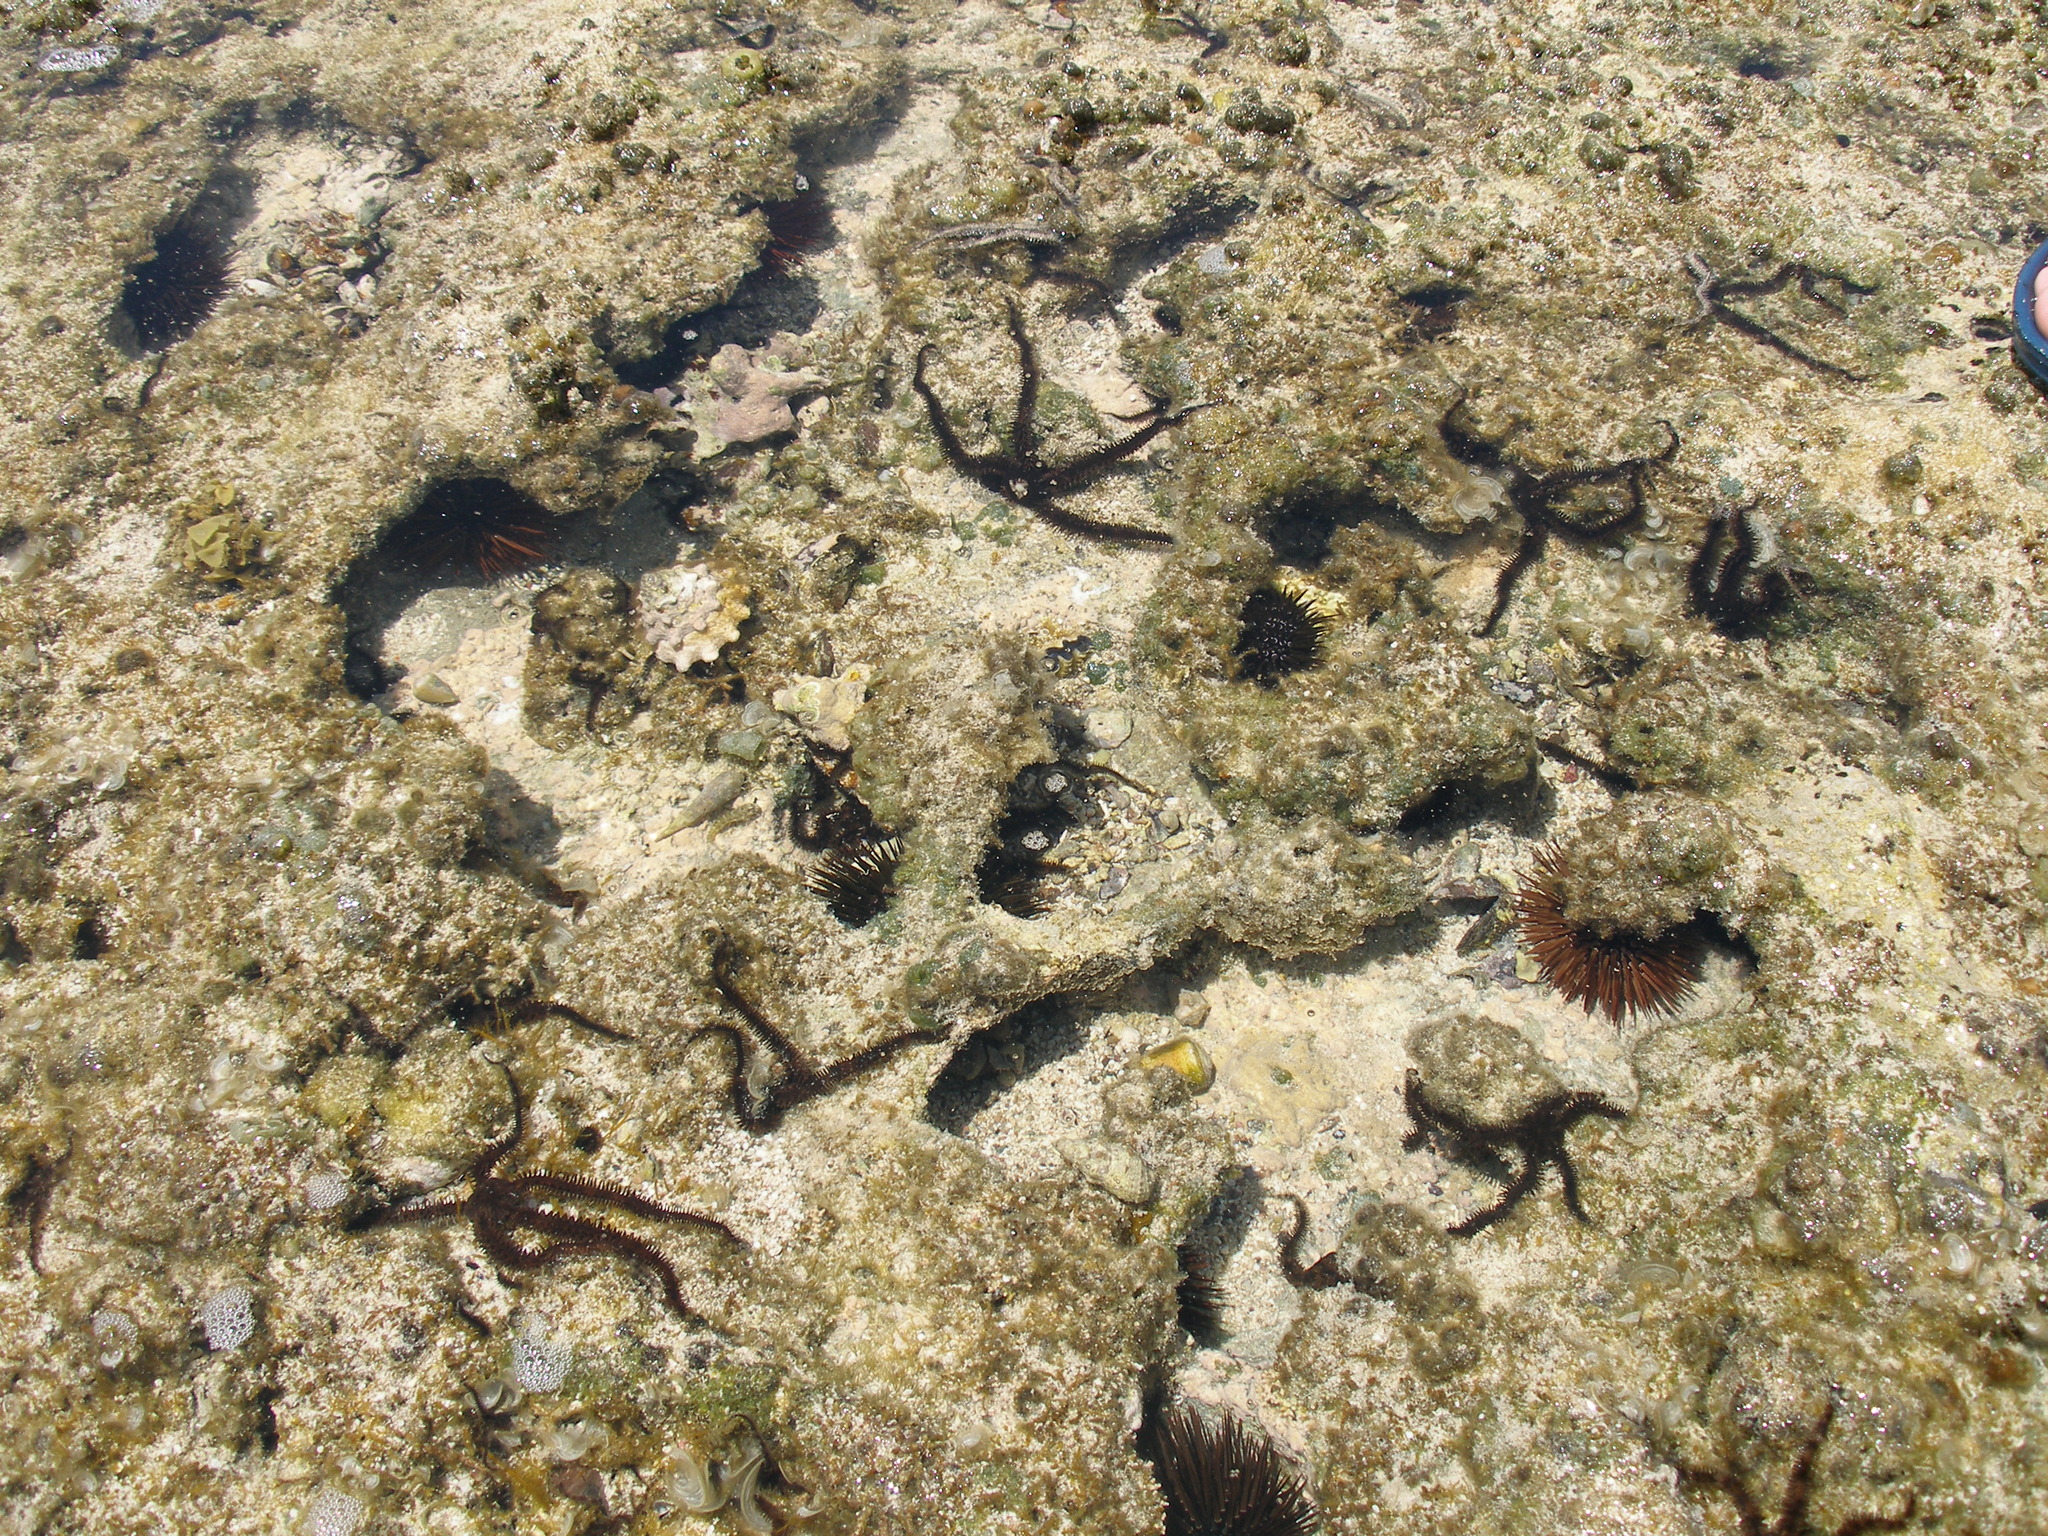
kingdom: Animalia
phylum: Echinodermata
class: Ophiuroidea
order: Ophiacanthida
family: Ophiocomidae
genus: Ophiocoma
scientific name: Ophiocoma scolopendrina
